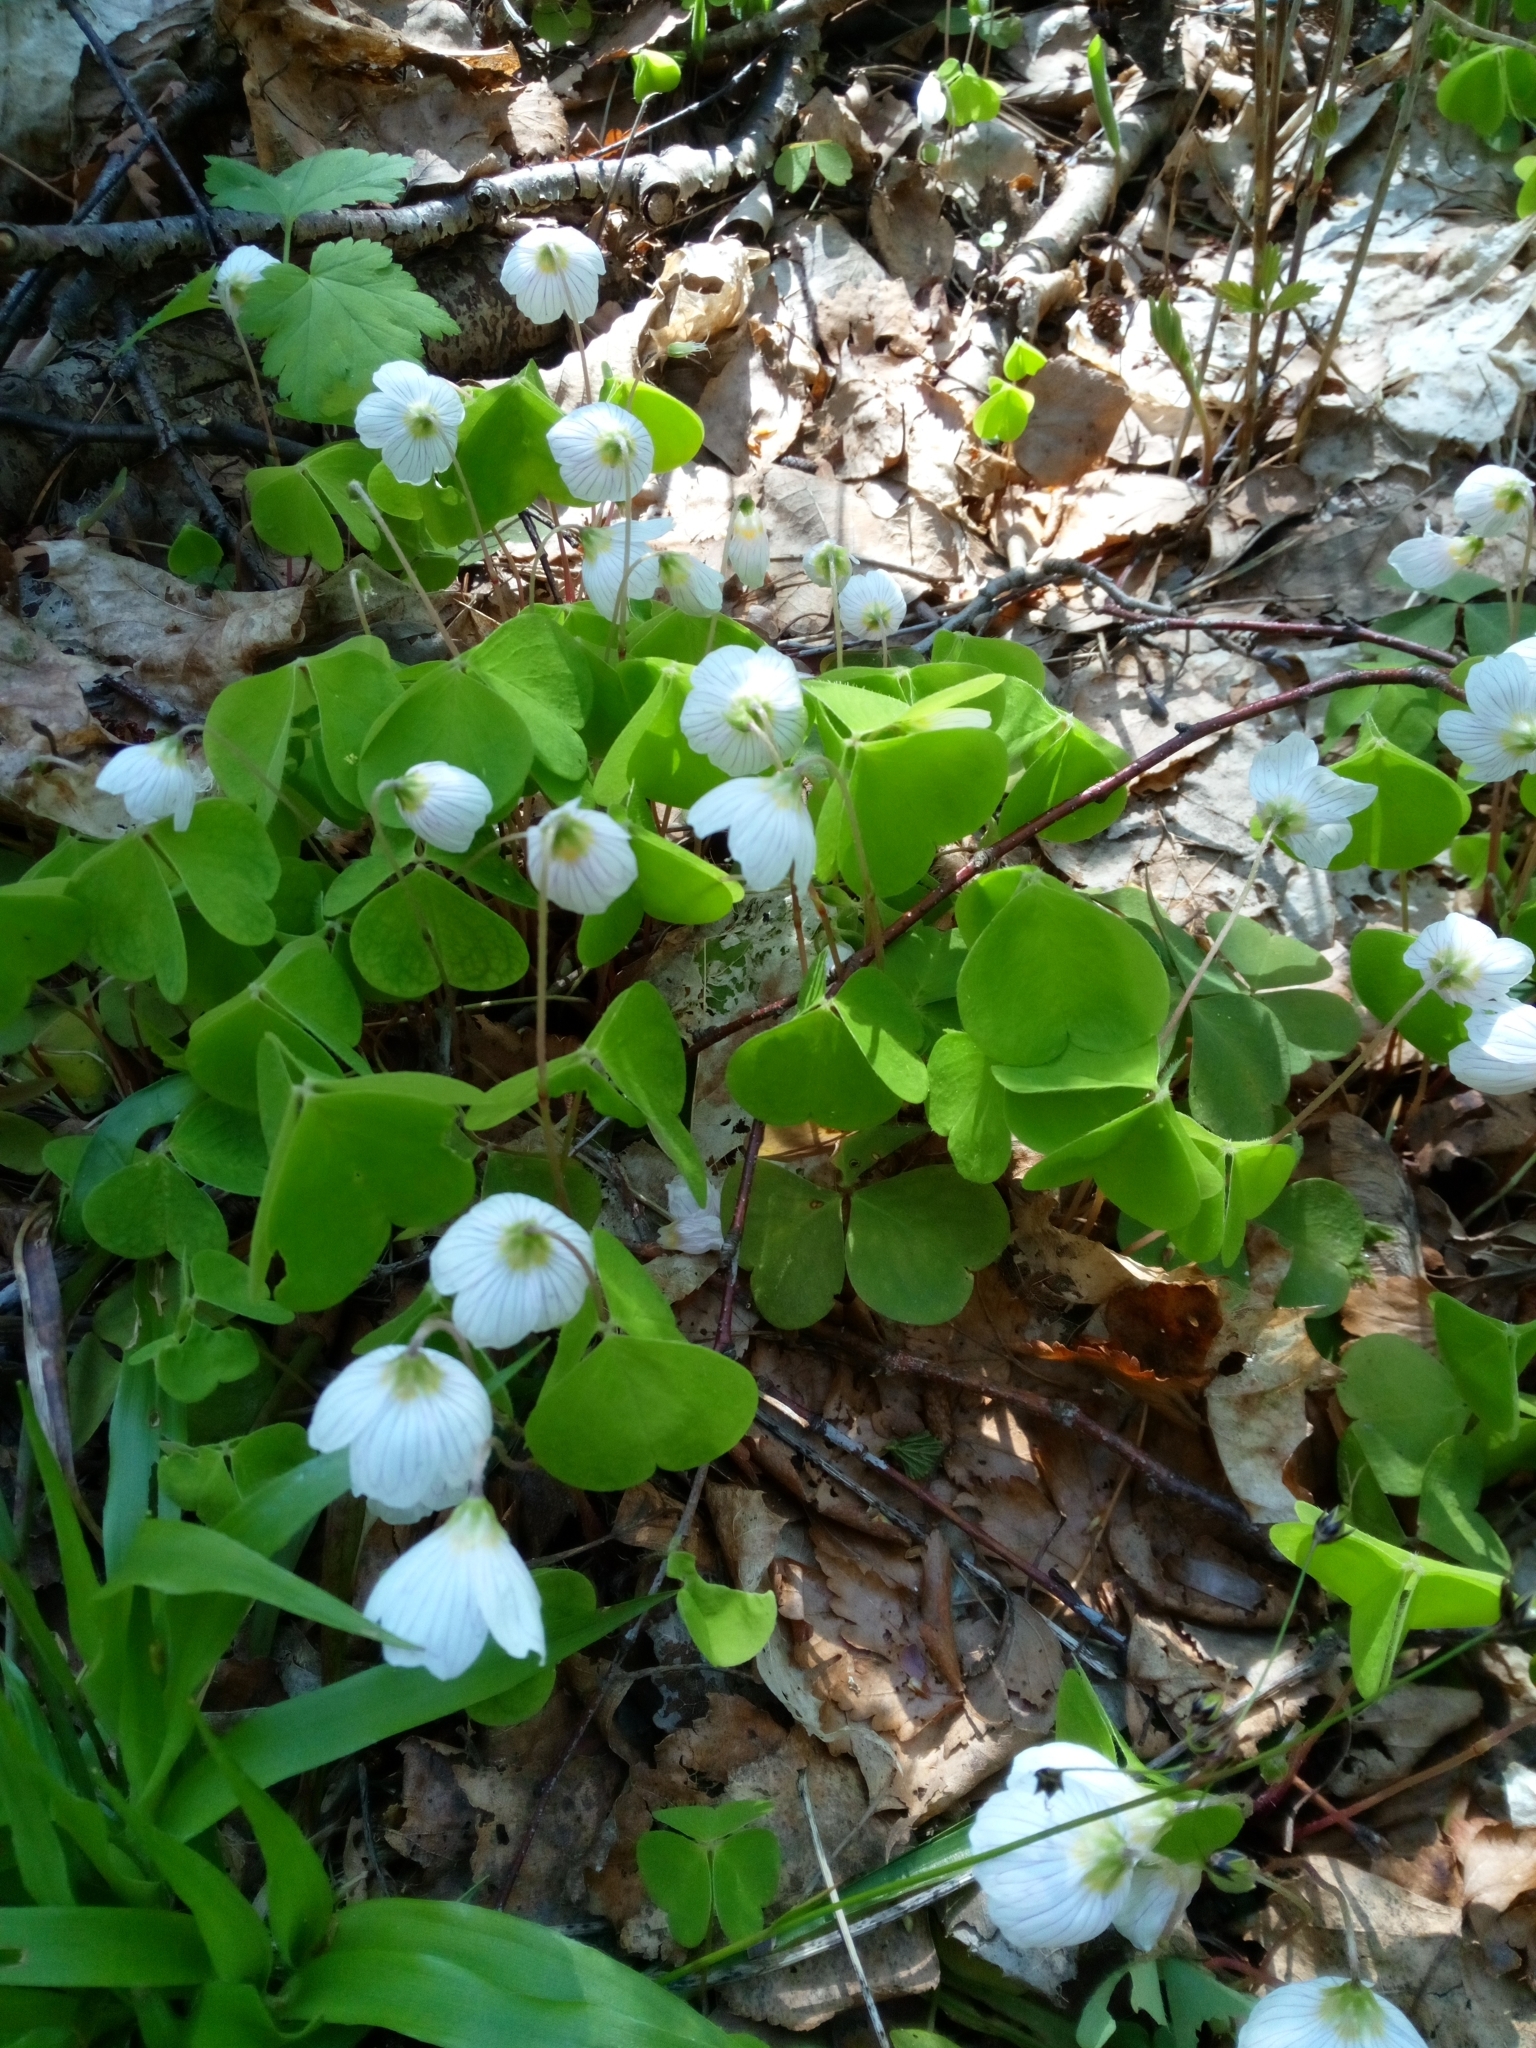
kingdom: Plantae
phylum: Tracheophyta
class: Magnoliopsida
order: Oxalidales
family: Oxalidaceae
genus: Oxalis
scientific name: Oxalis acetosella
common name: Wood-sorrel
